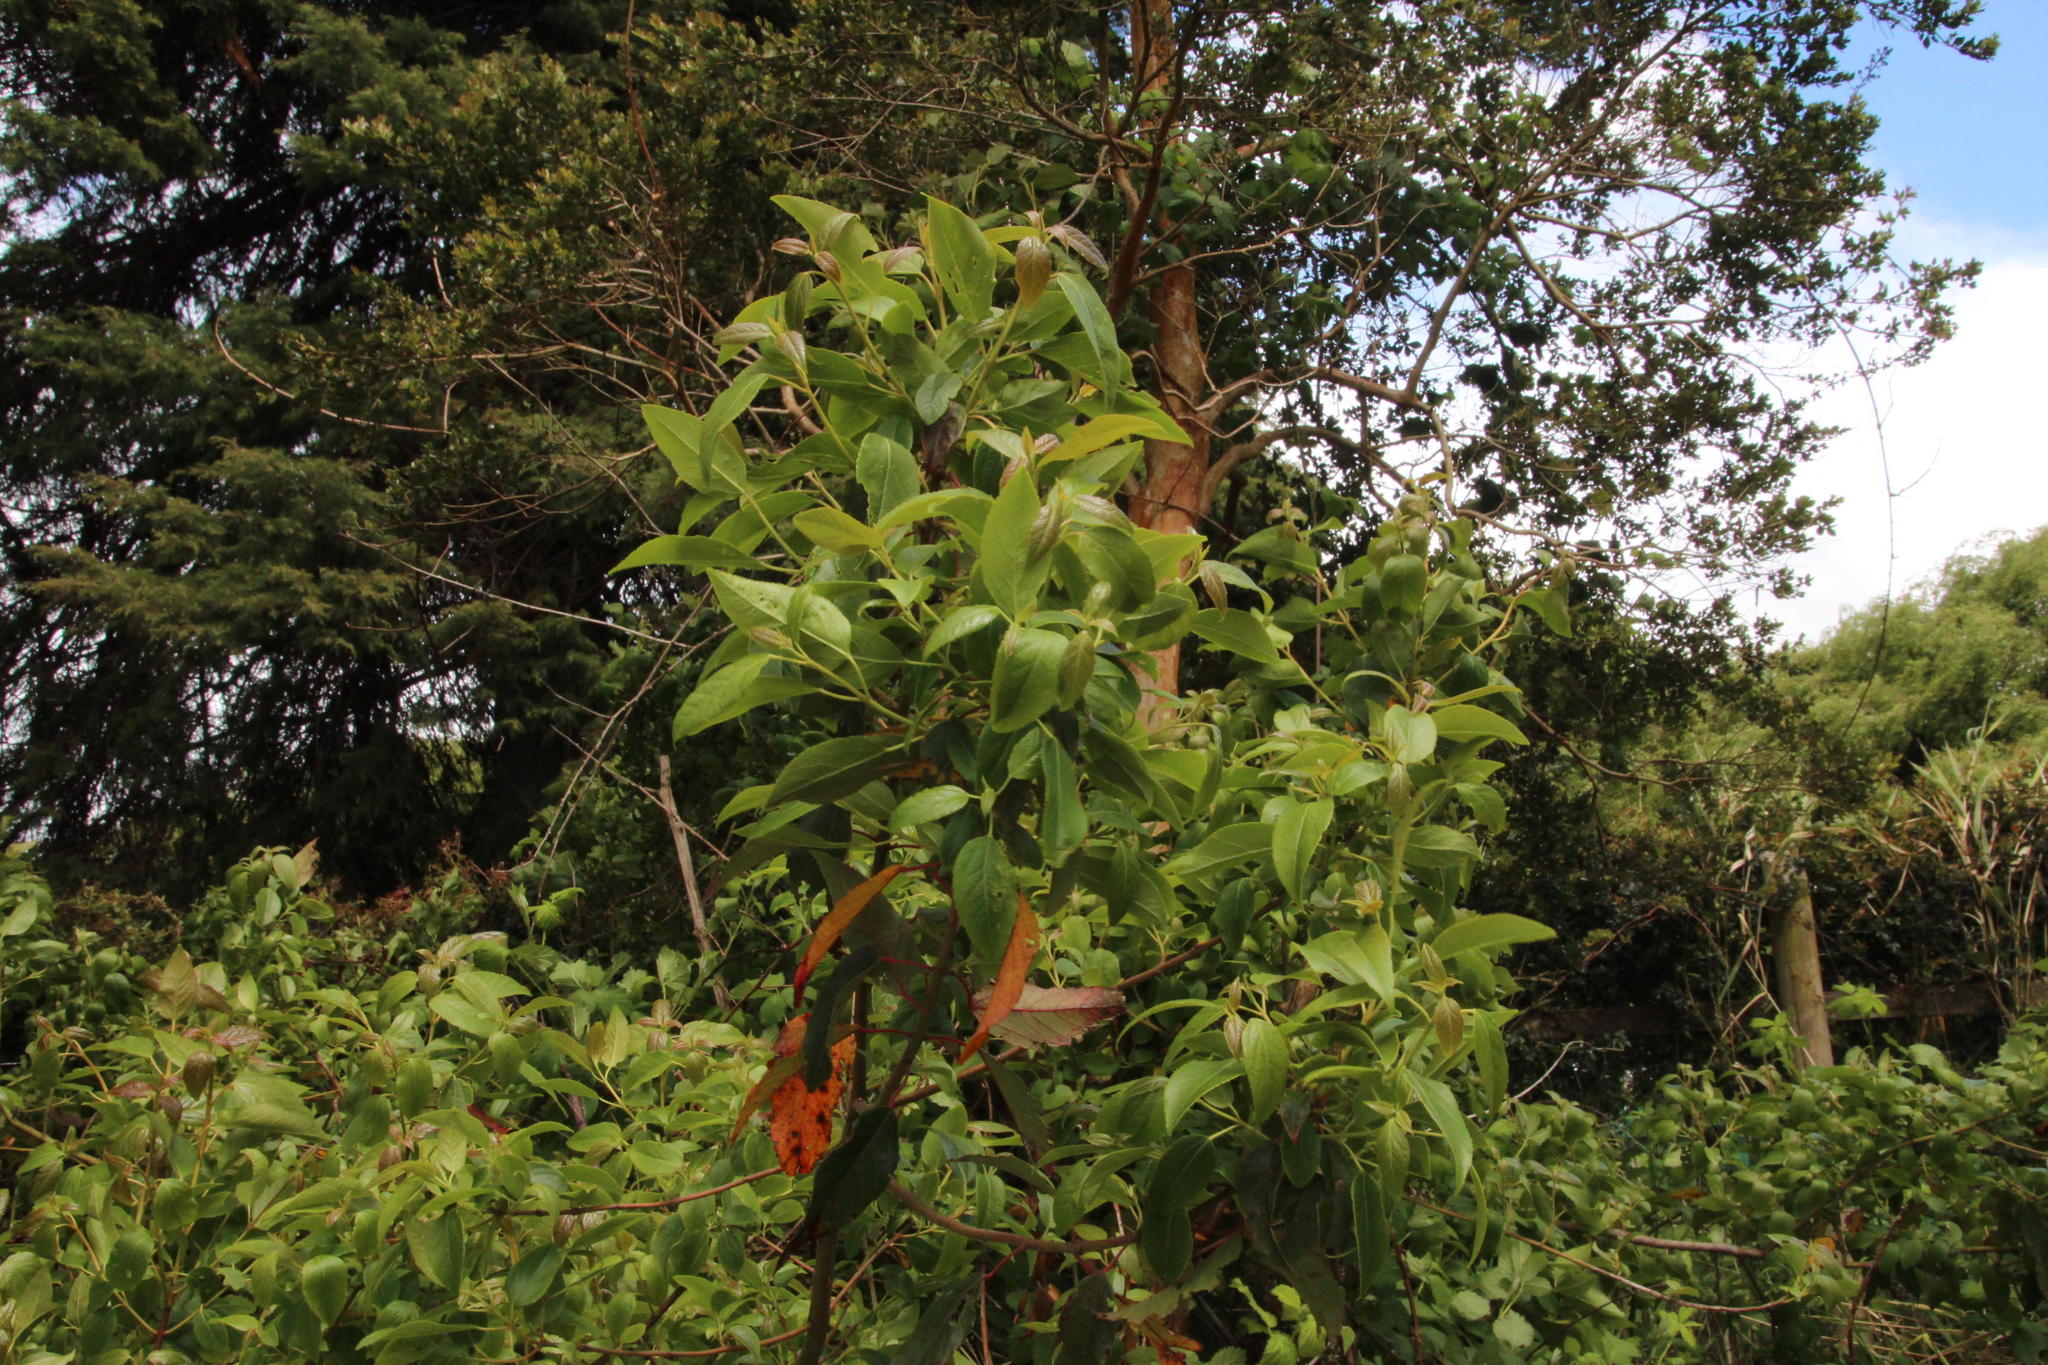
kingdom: Plantae
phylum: Tracheophyta
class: Magnoliopsida
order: Oxalidales
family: Elaeocarpaceae
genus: Aristotelia
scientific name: Aristotelia chilensis
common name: Maquei
